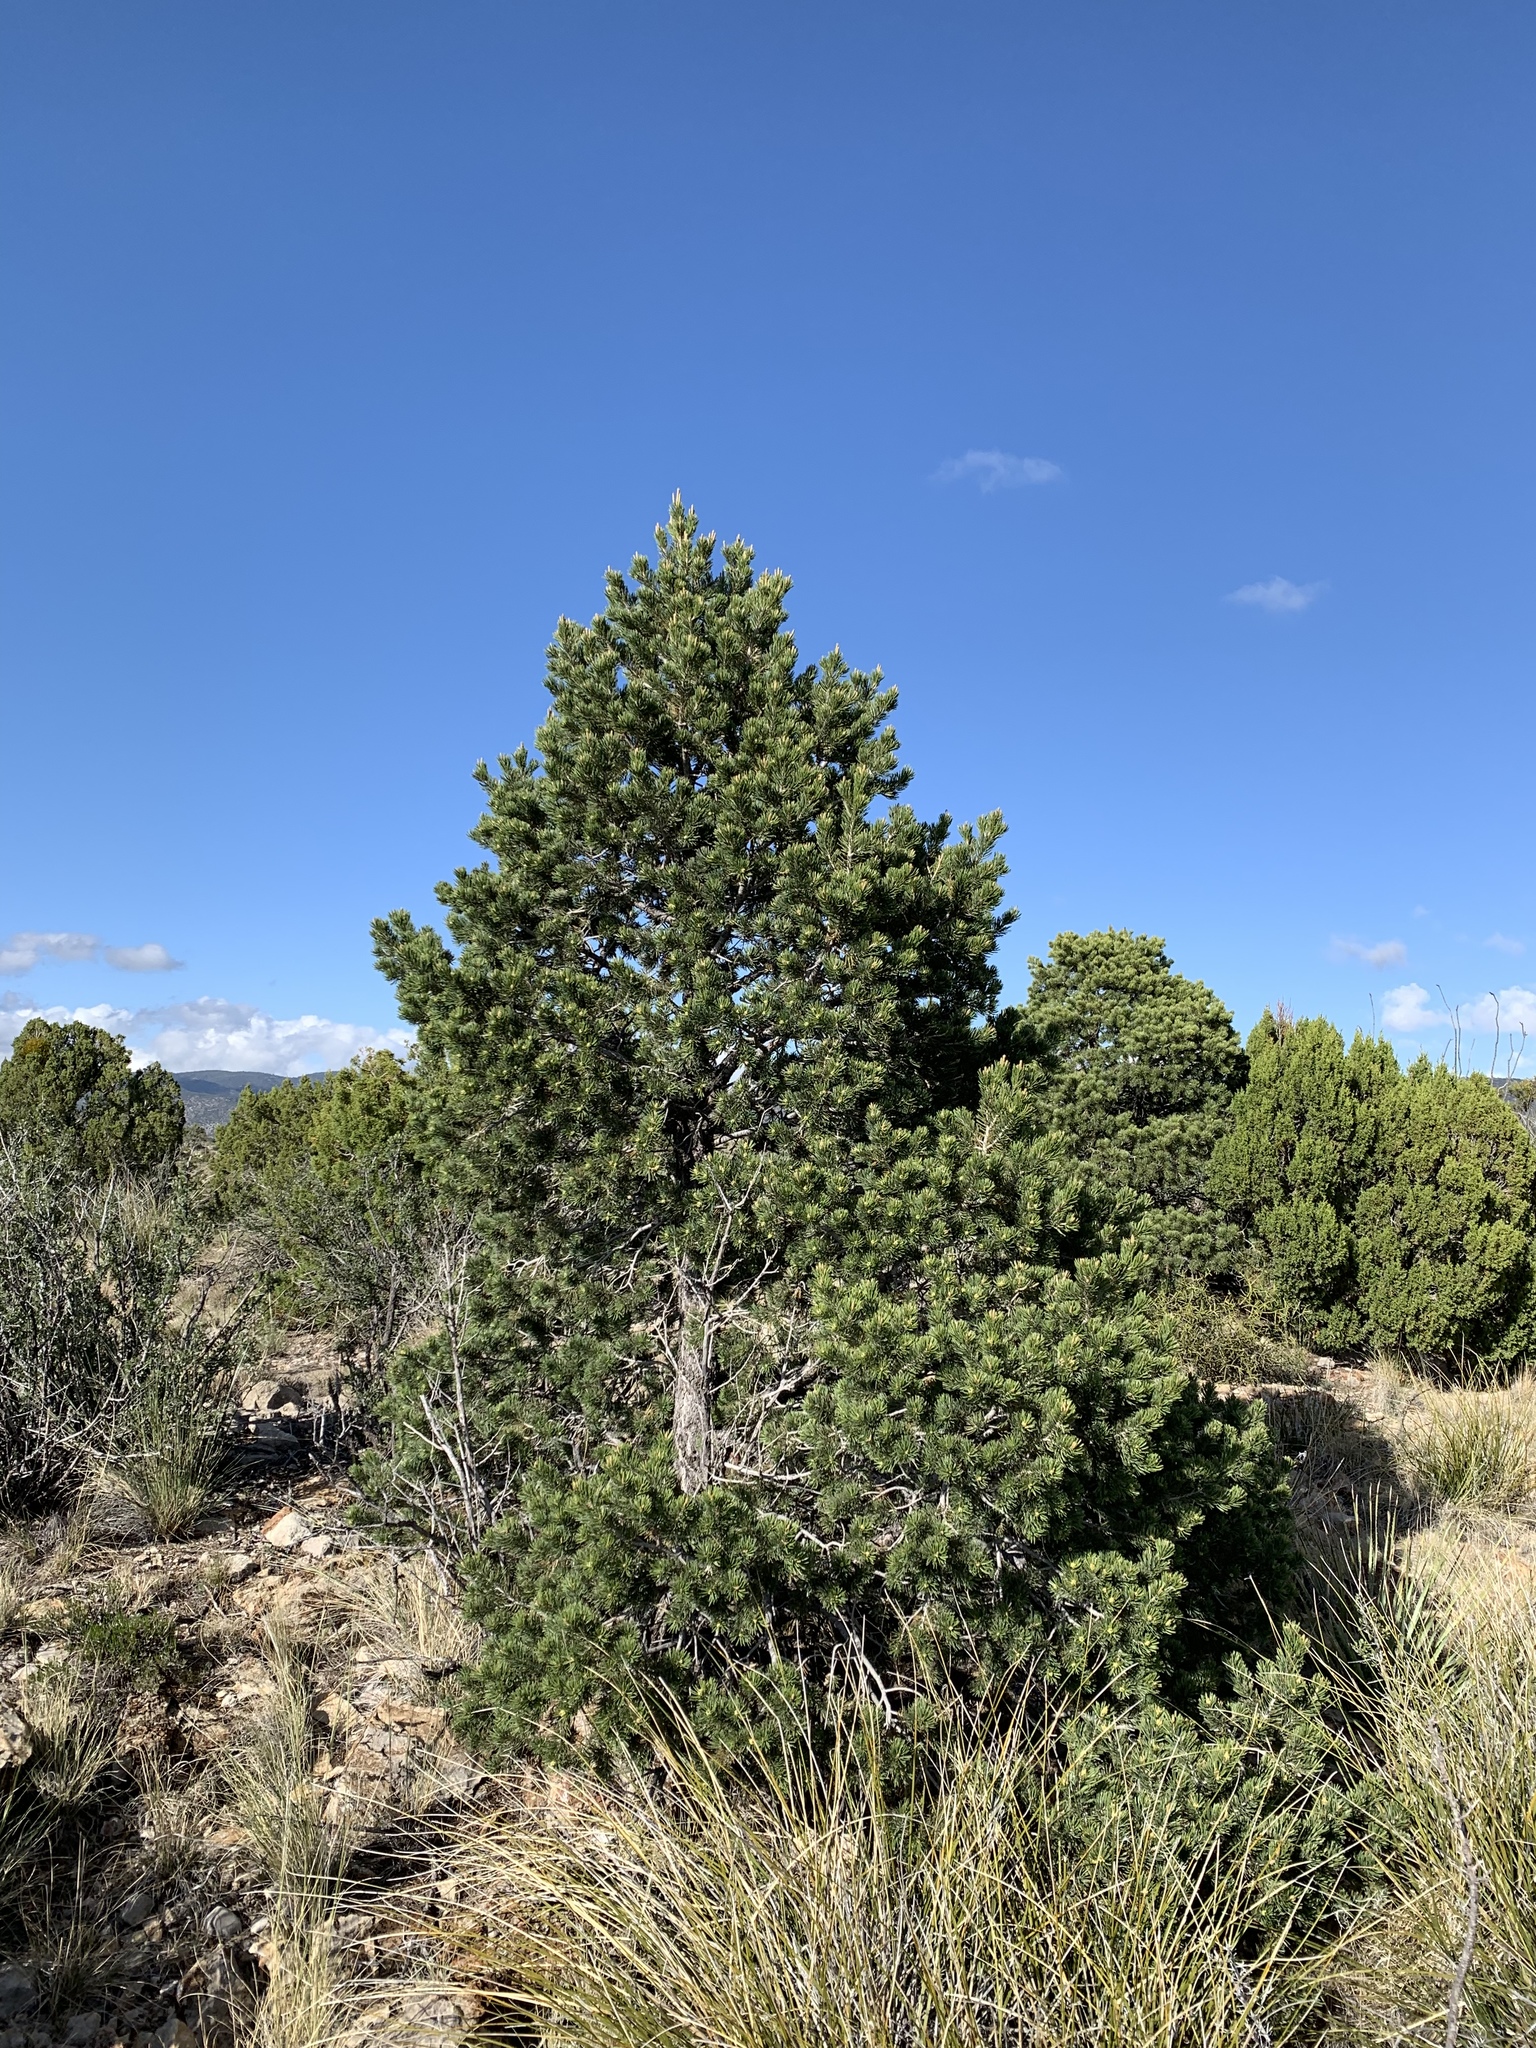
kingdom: Plantae
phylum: Tracheophyta
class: Pinopsida
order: Pinales
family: Pinaceae
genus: Pinus
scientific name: Pinus edulis
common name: Colorado pinyon
